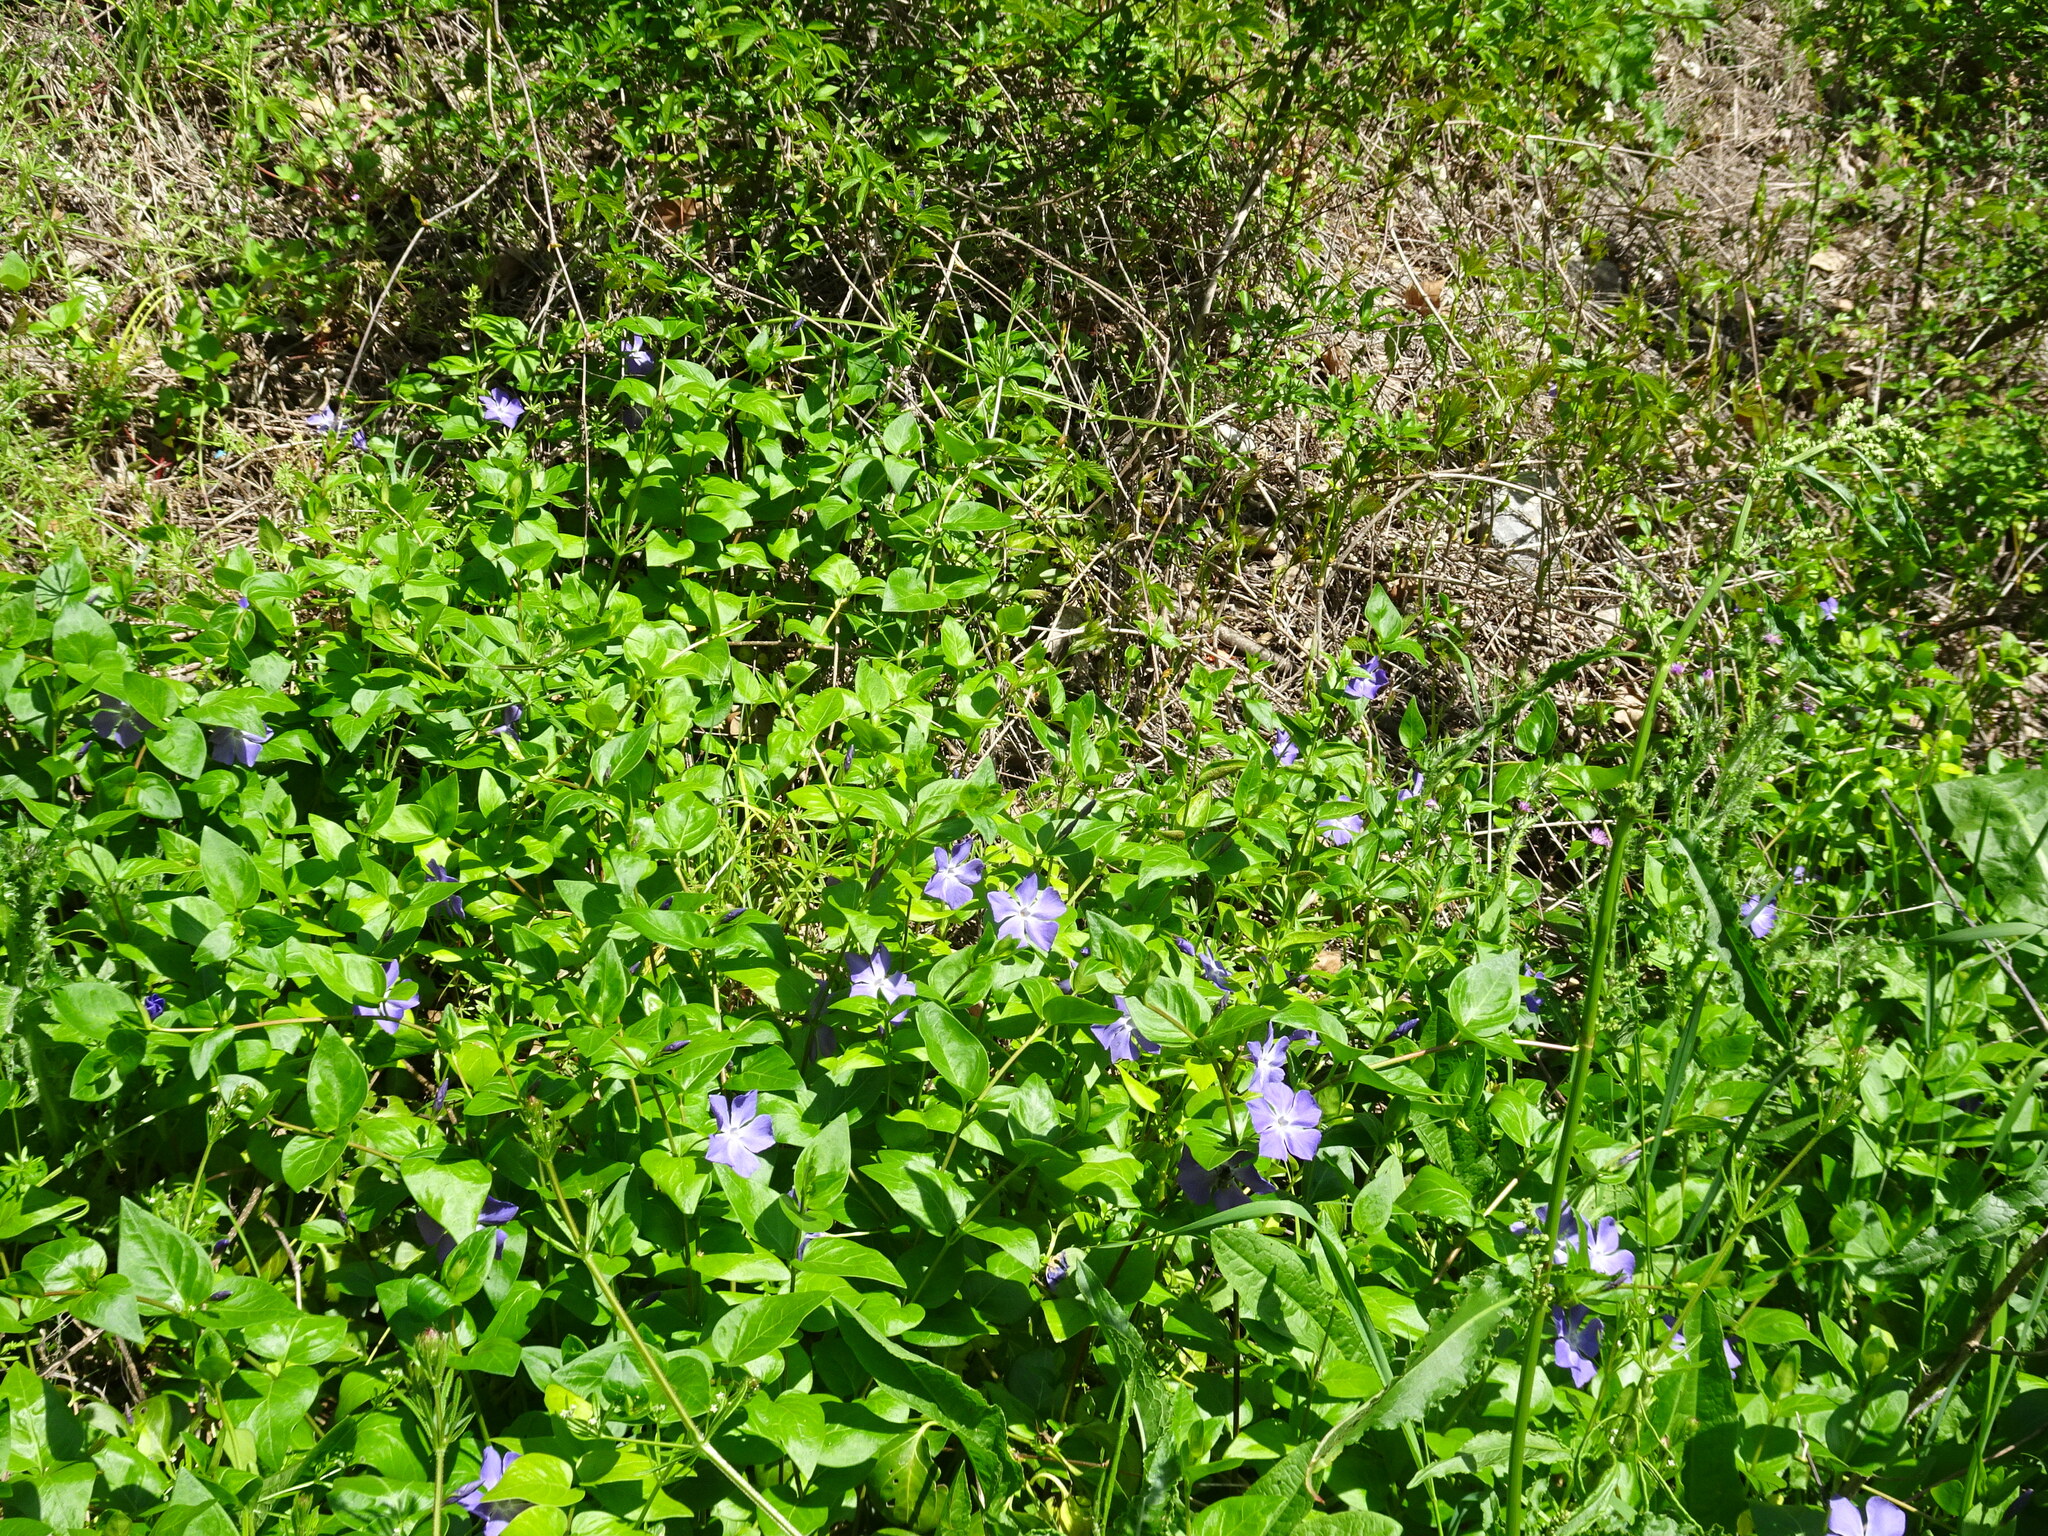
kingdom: Plantae
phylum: Tracheophyta
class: Magnoliopsida
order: Gentianales
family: Apocynaceae
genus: Vinca
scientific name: Vinca major
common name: Greater periwinkle
